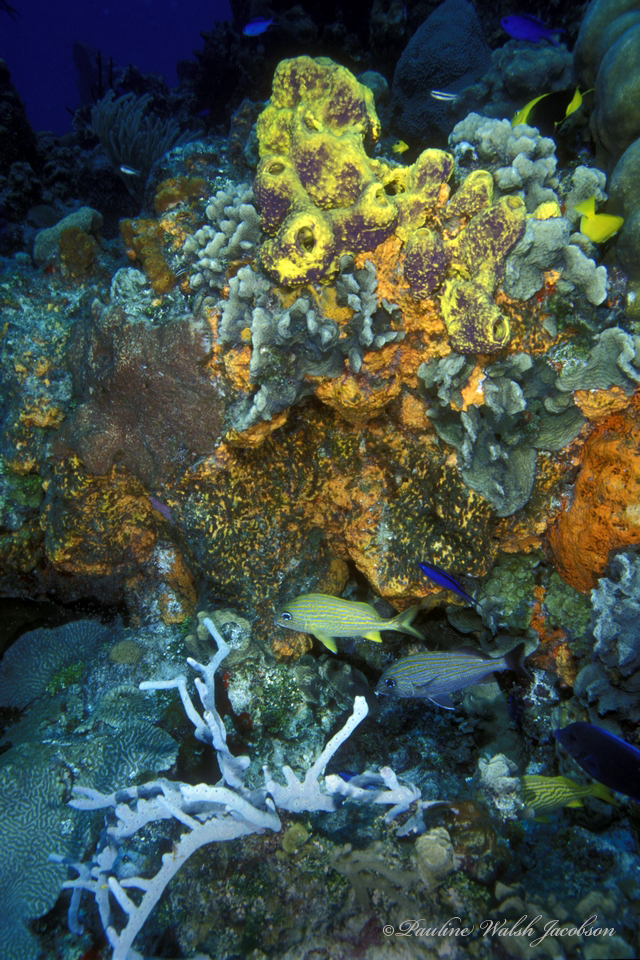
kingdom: Animalia
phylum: Chordata
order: Perciformes
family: Haemulidae
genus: Haemulon
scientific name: Haemulon carbonarium
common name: Caesar grunt
